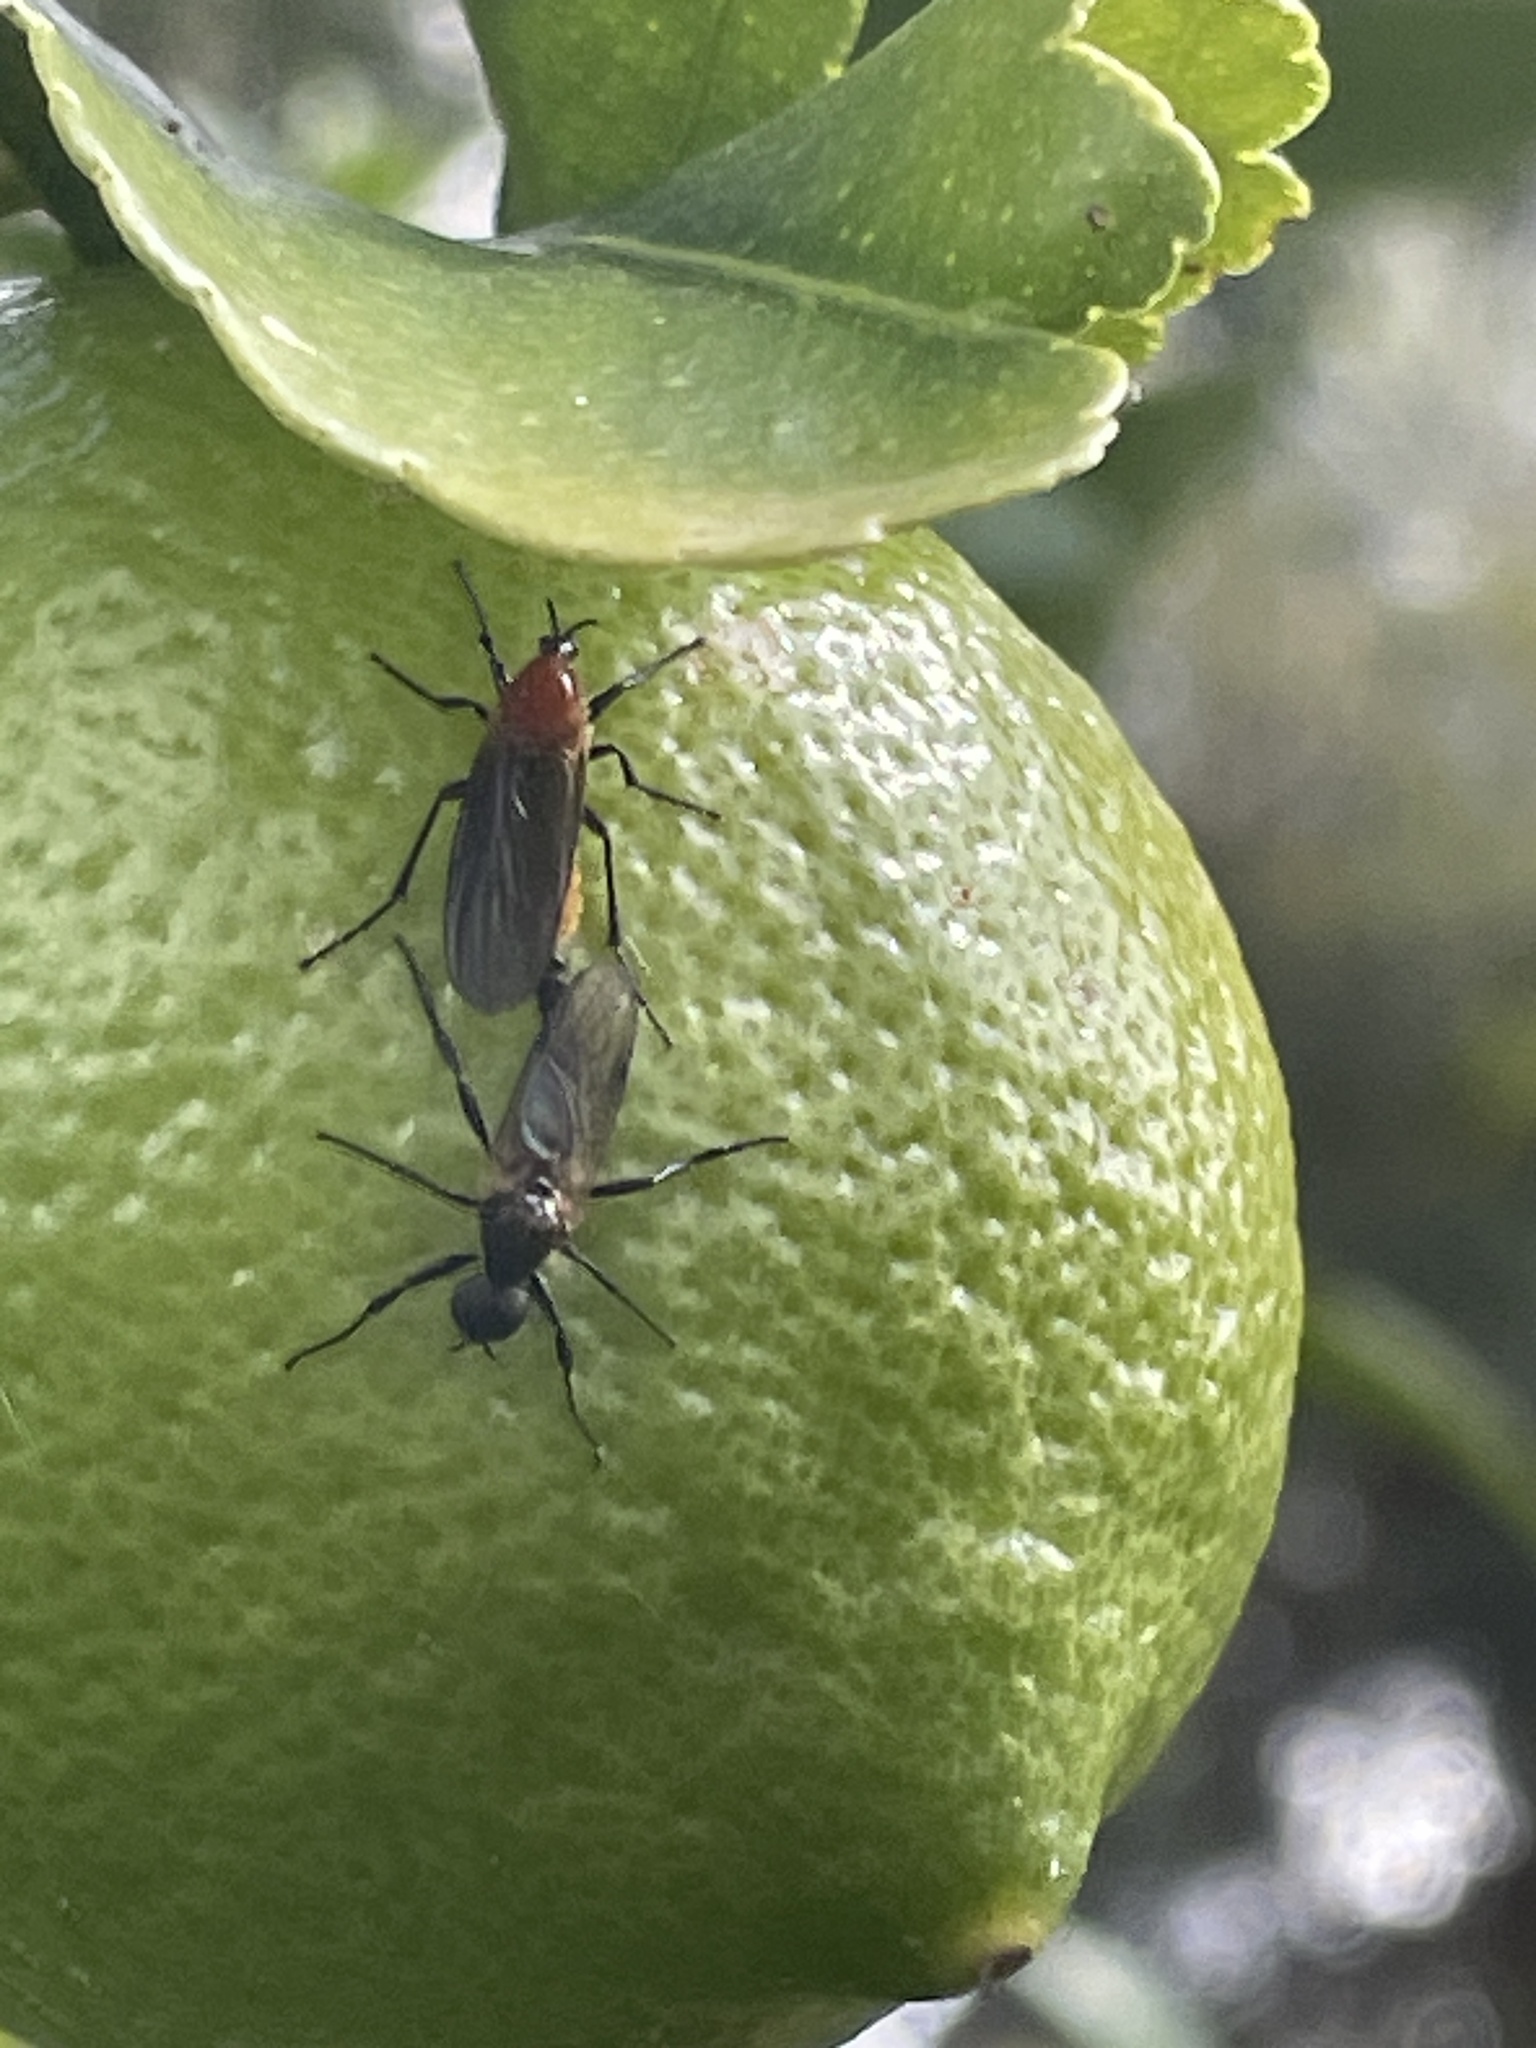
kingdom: Animalia
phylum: Arthropoda
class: Insecta
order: Diptera
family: Bibionidae
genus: Bibio
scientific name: Bibio imitator
